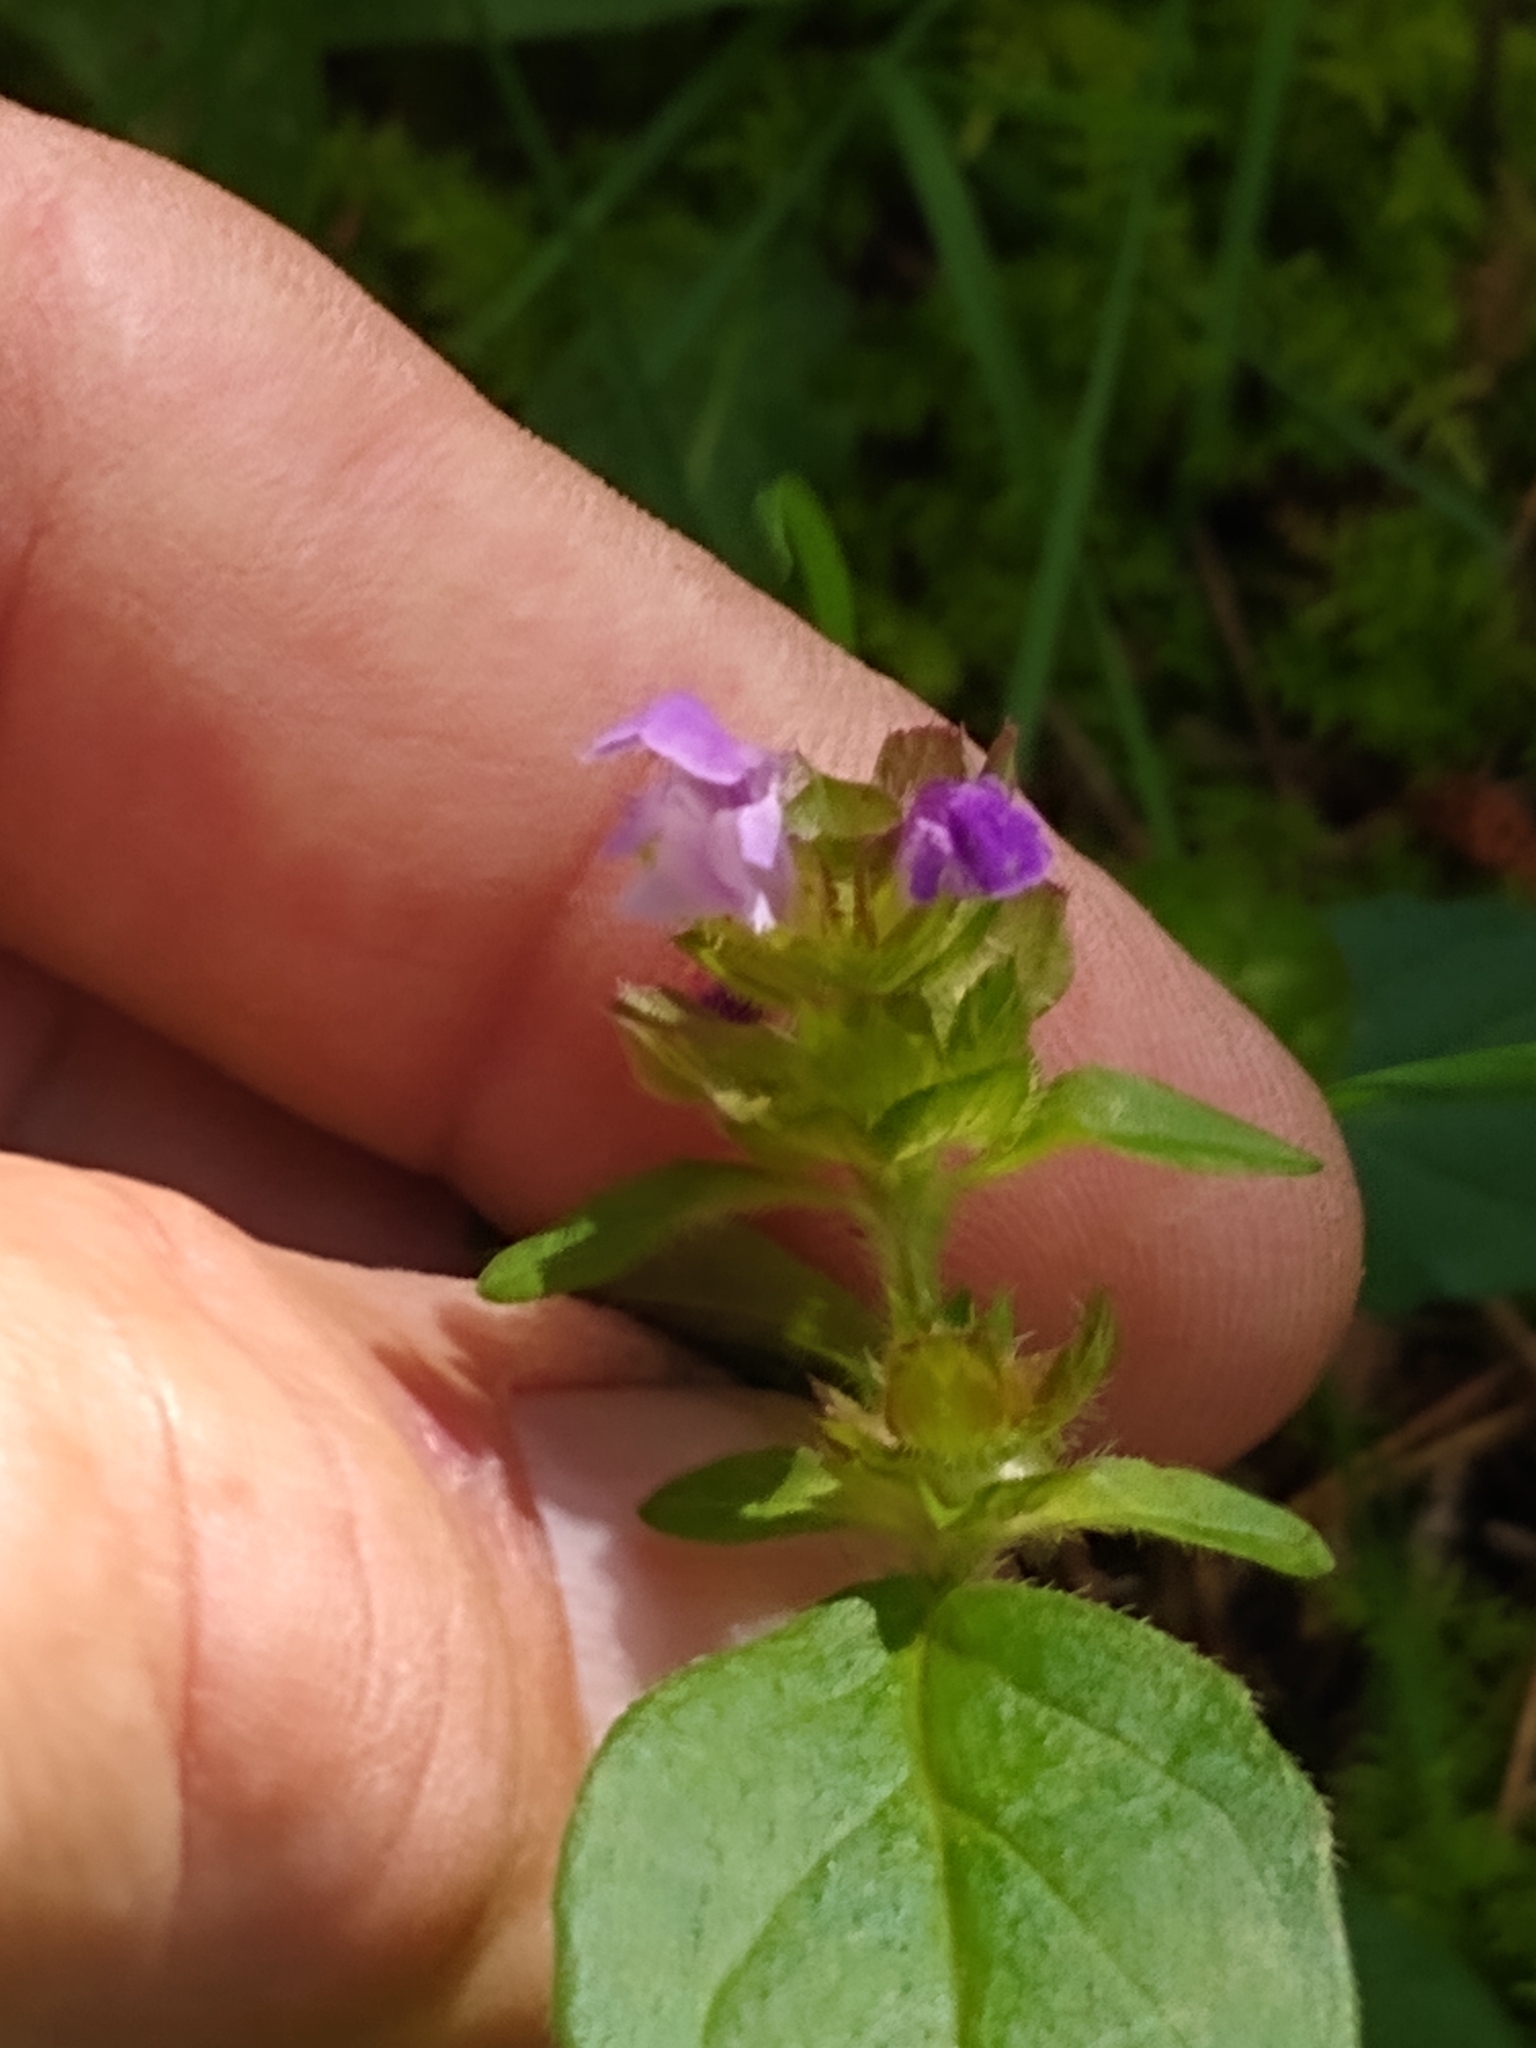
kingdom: Plantae
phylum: Tracheophyta
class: Magnoliopsida
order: Lamiales
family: Lamiaceae
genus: Prunella
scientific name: Prunella vulgaris
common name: Heal-all
